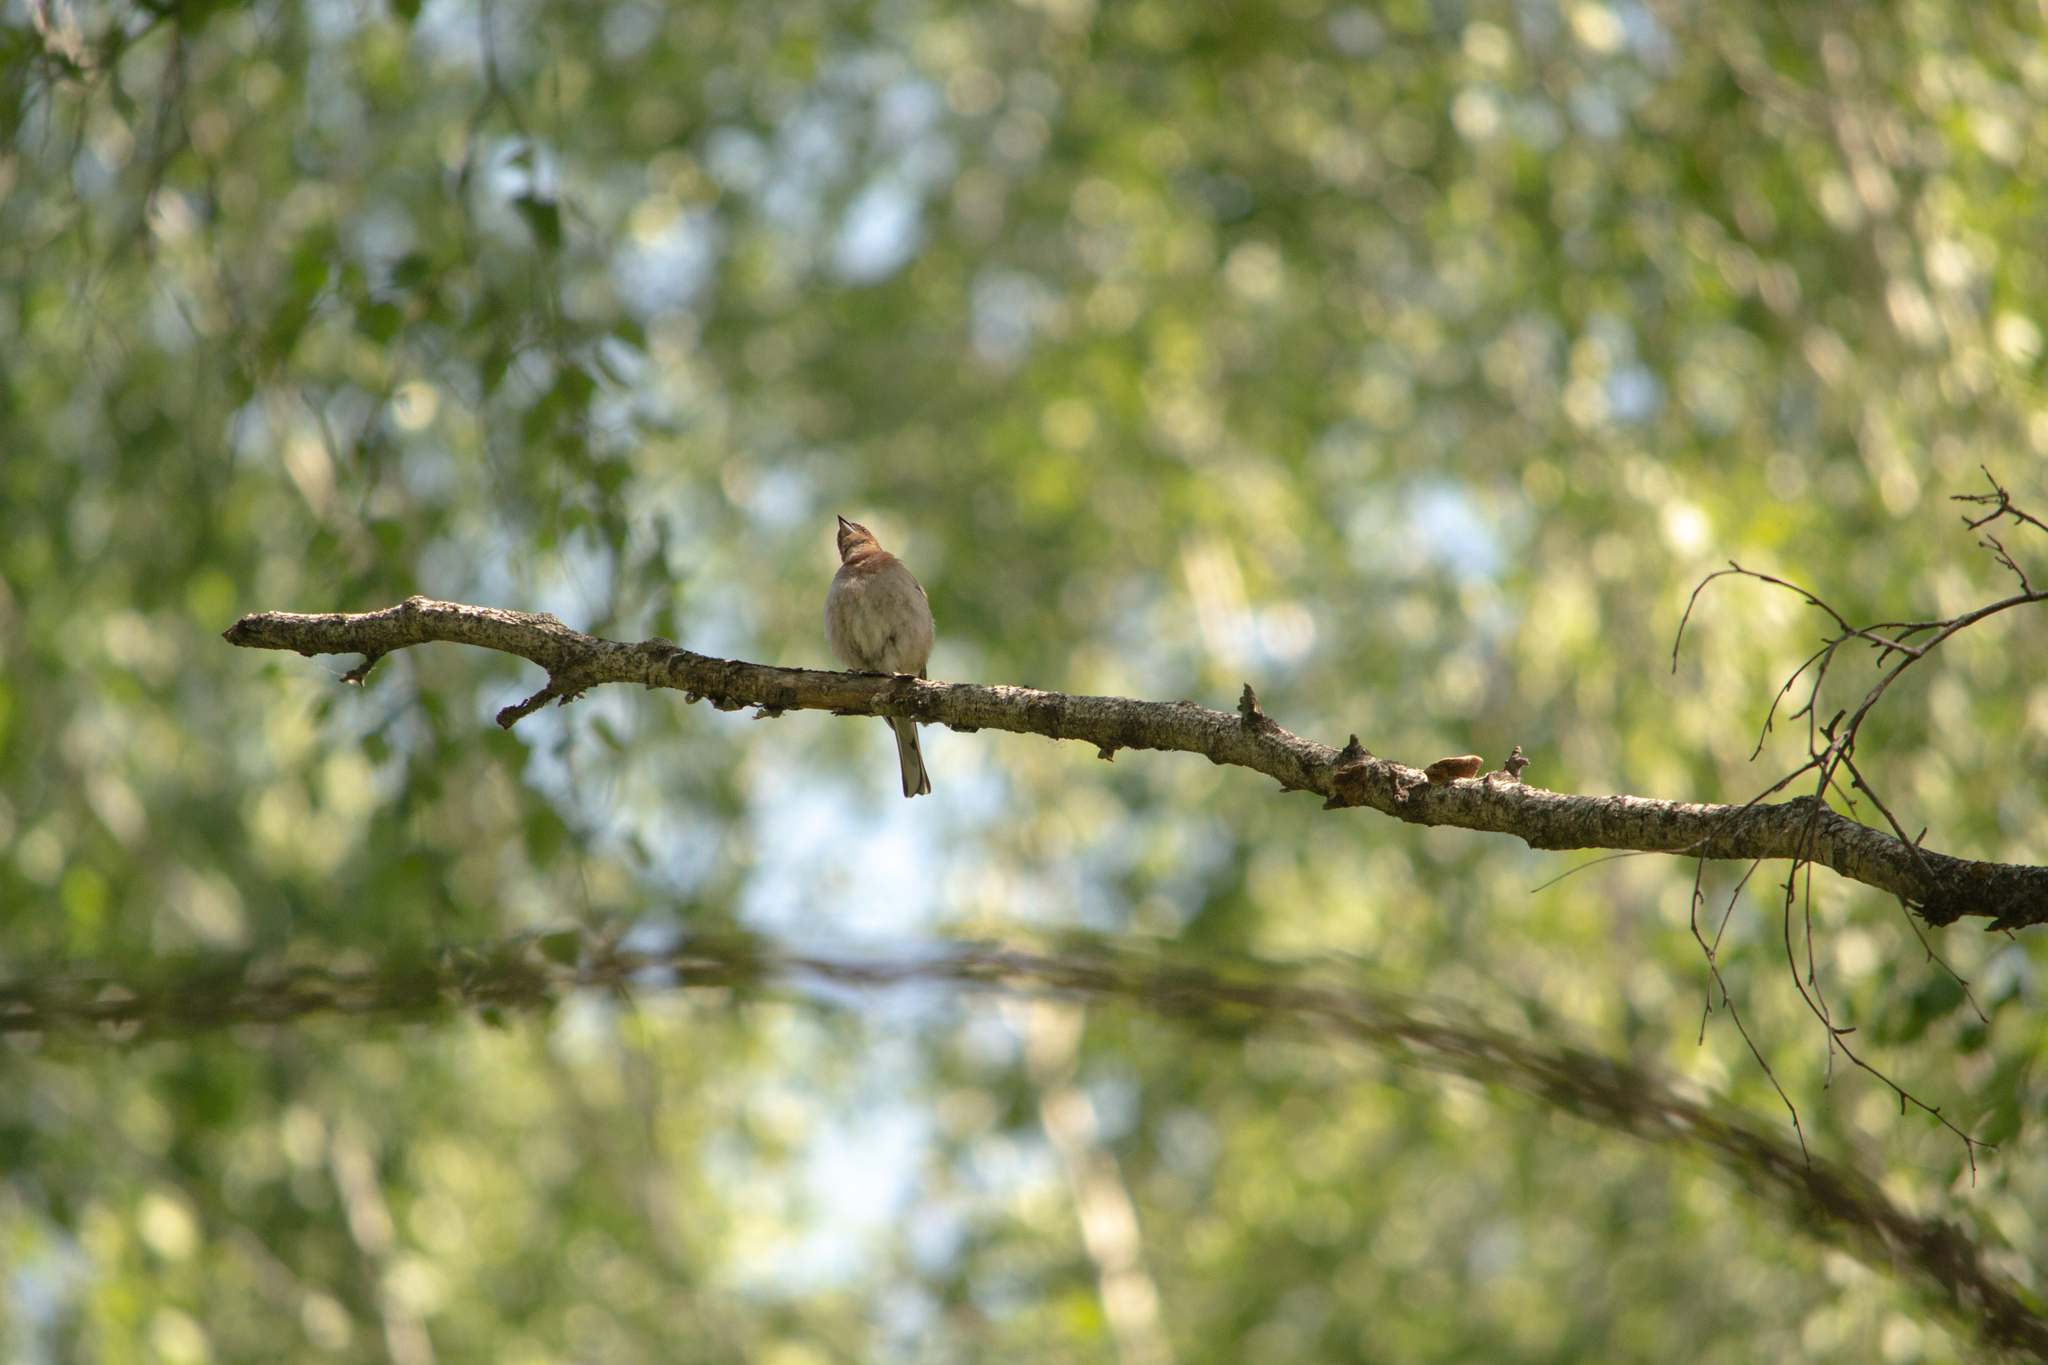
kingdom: Animalia
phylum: Chordata
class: Aves
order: Passeriformes
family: Fringillidae
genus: Fringilla
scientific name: Fringilla coelebs
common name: Common chaffinch
